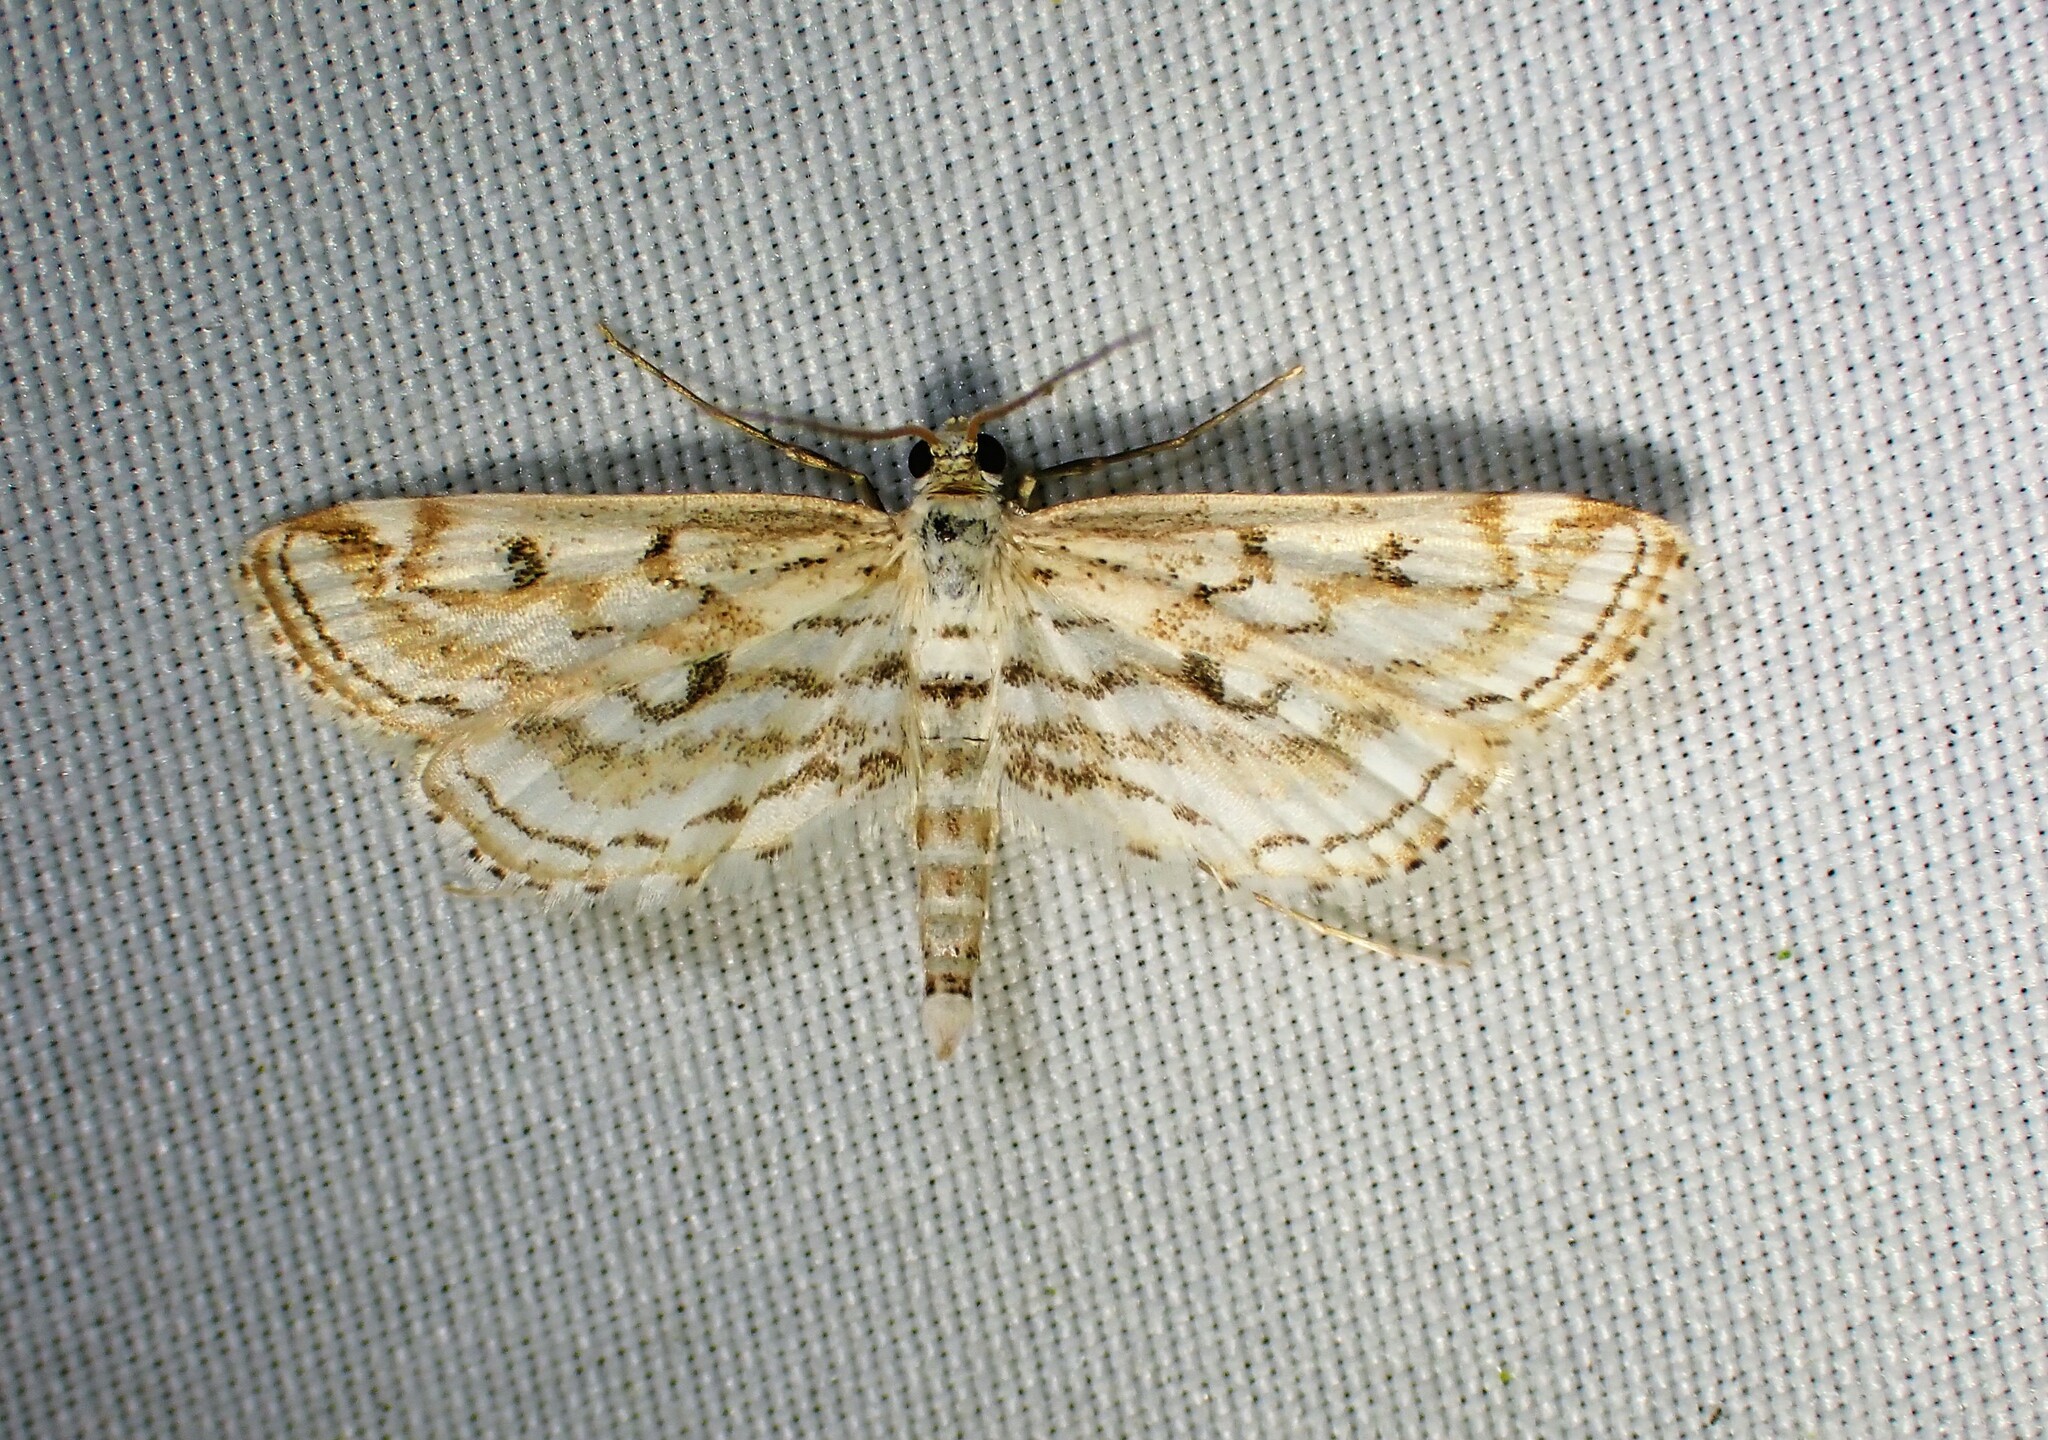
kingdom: Animalia
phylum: Arthropoda
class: Insecta
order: Lepidoptera
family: Crambidae
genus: Parapoynx
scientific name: Parapoynx allionealis
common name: Bladderwort casemaker
